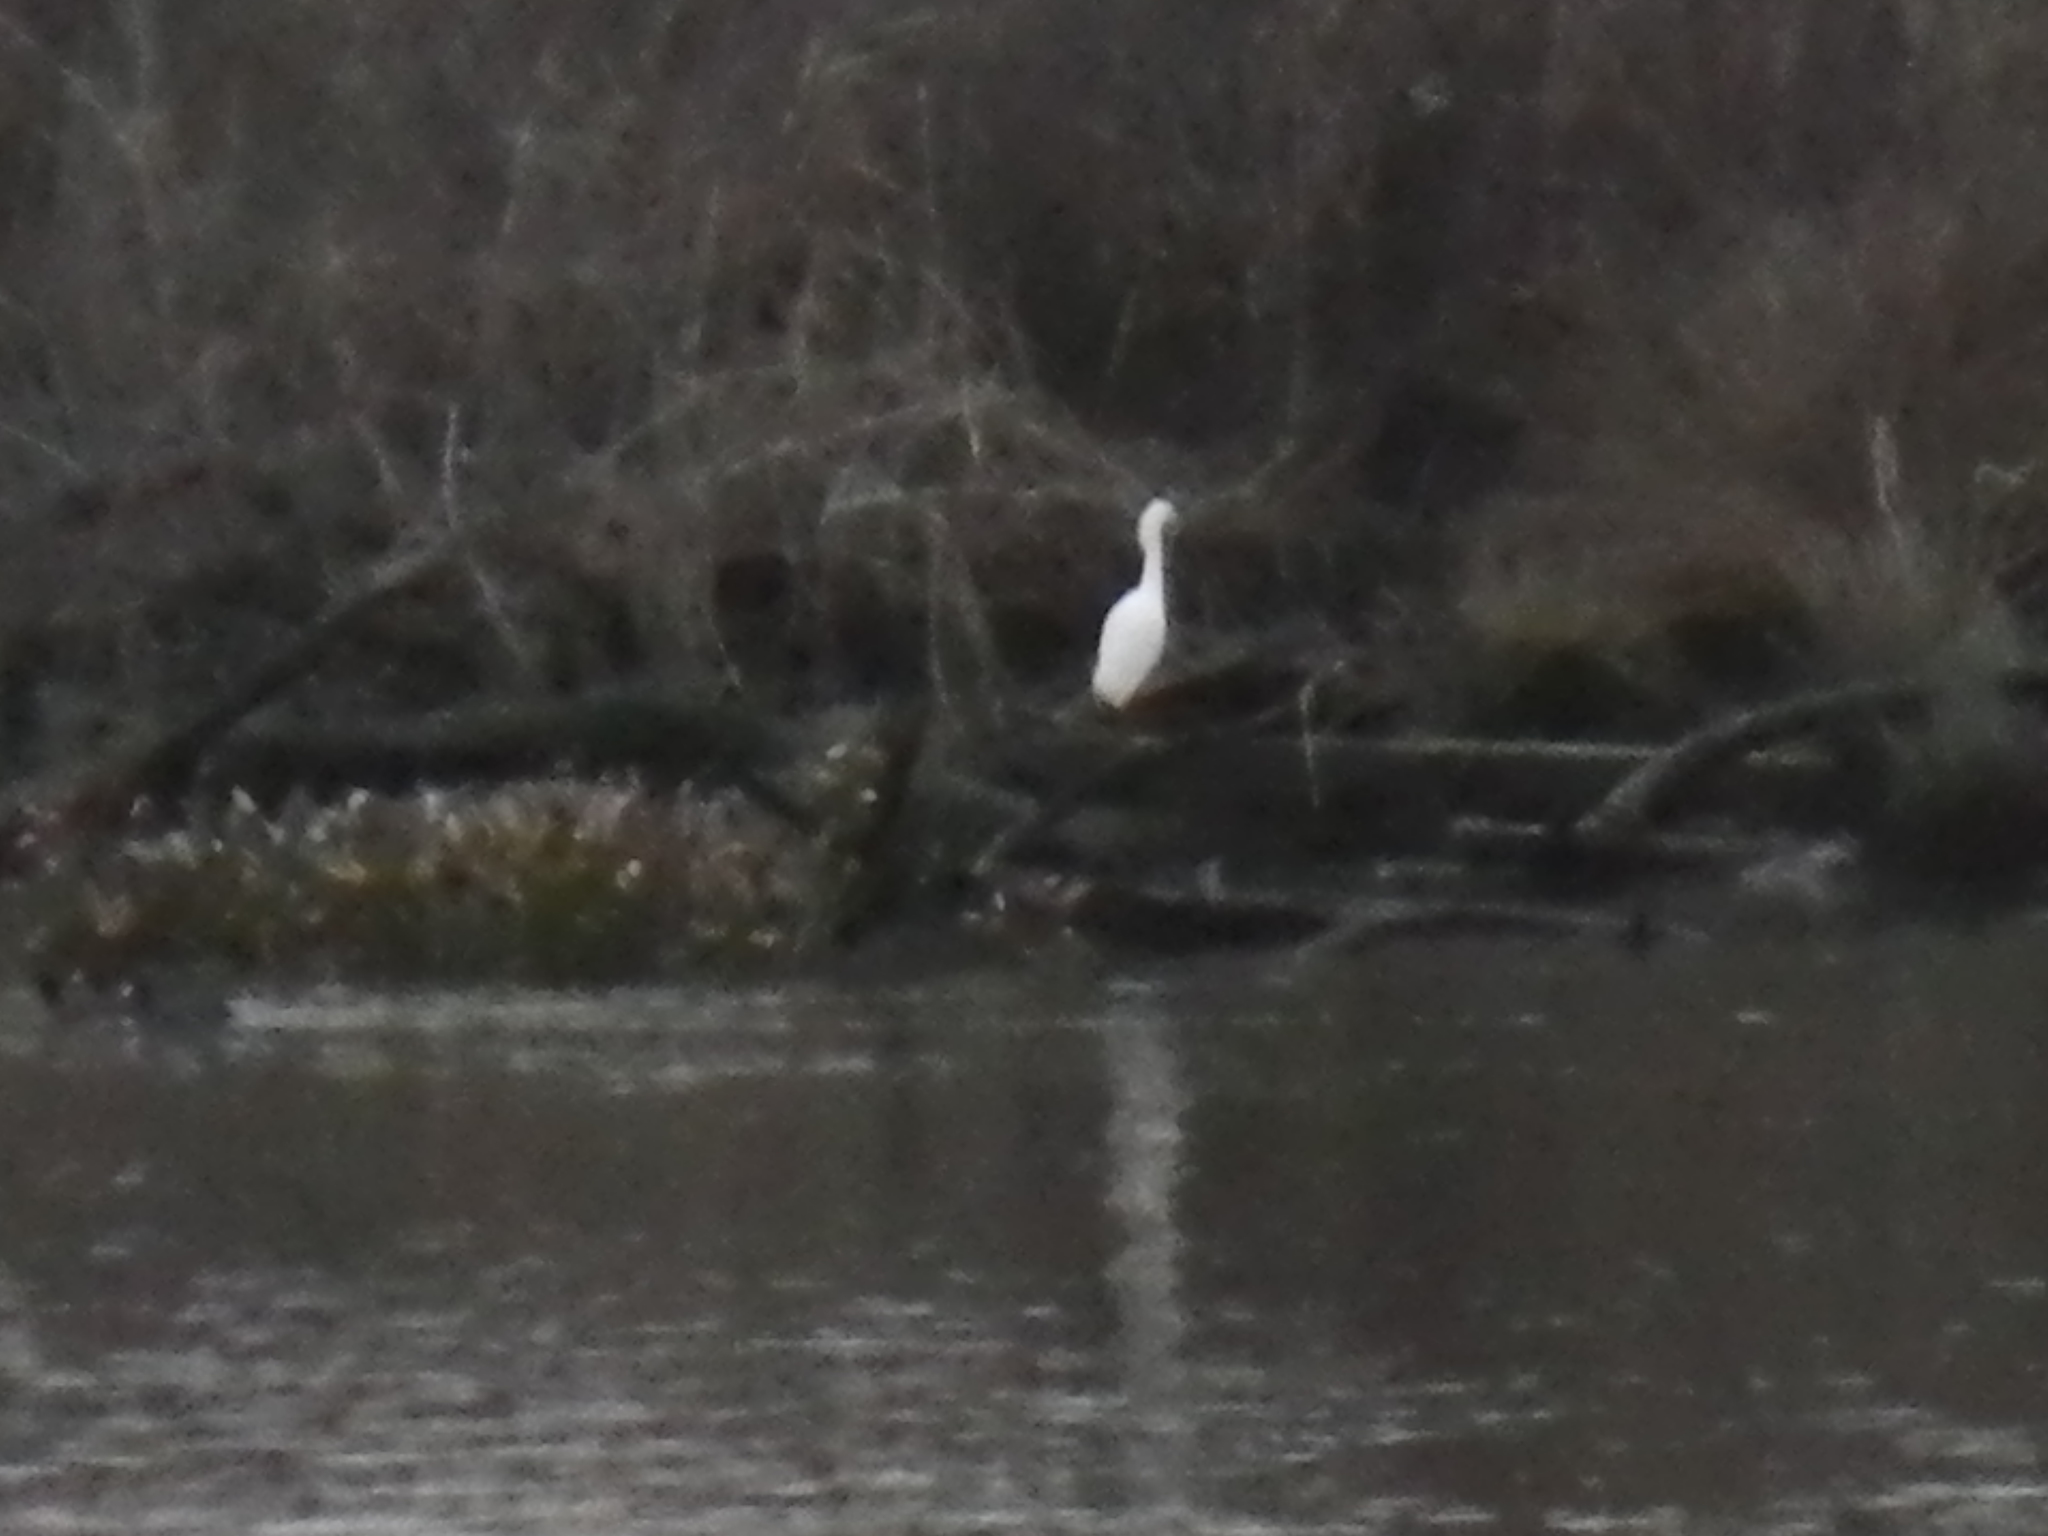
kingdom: Animalia
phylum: Chordata
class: Aves
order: Pelecaniformes
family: Ardeidae
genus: Egretta
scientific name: Egretta thula
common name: Snowy egret
